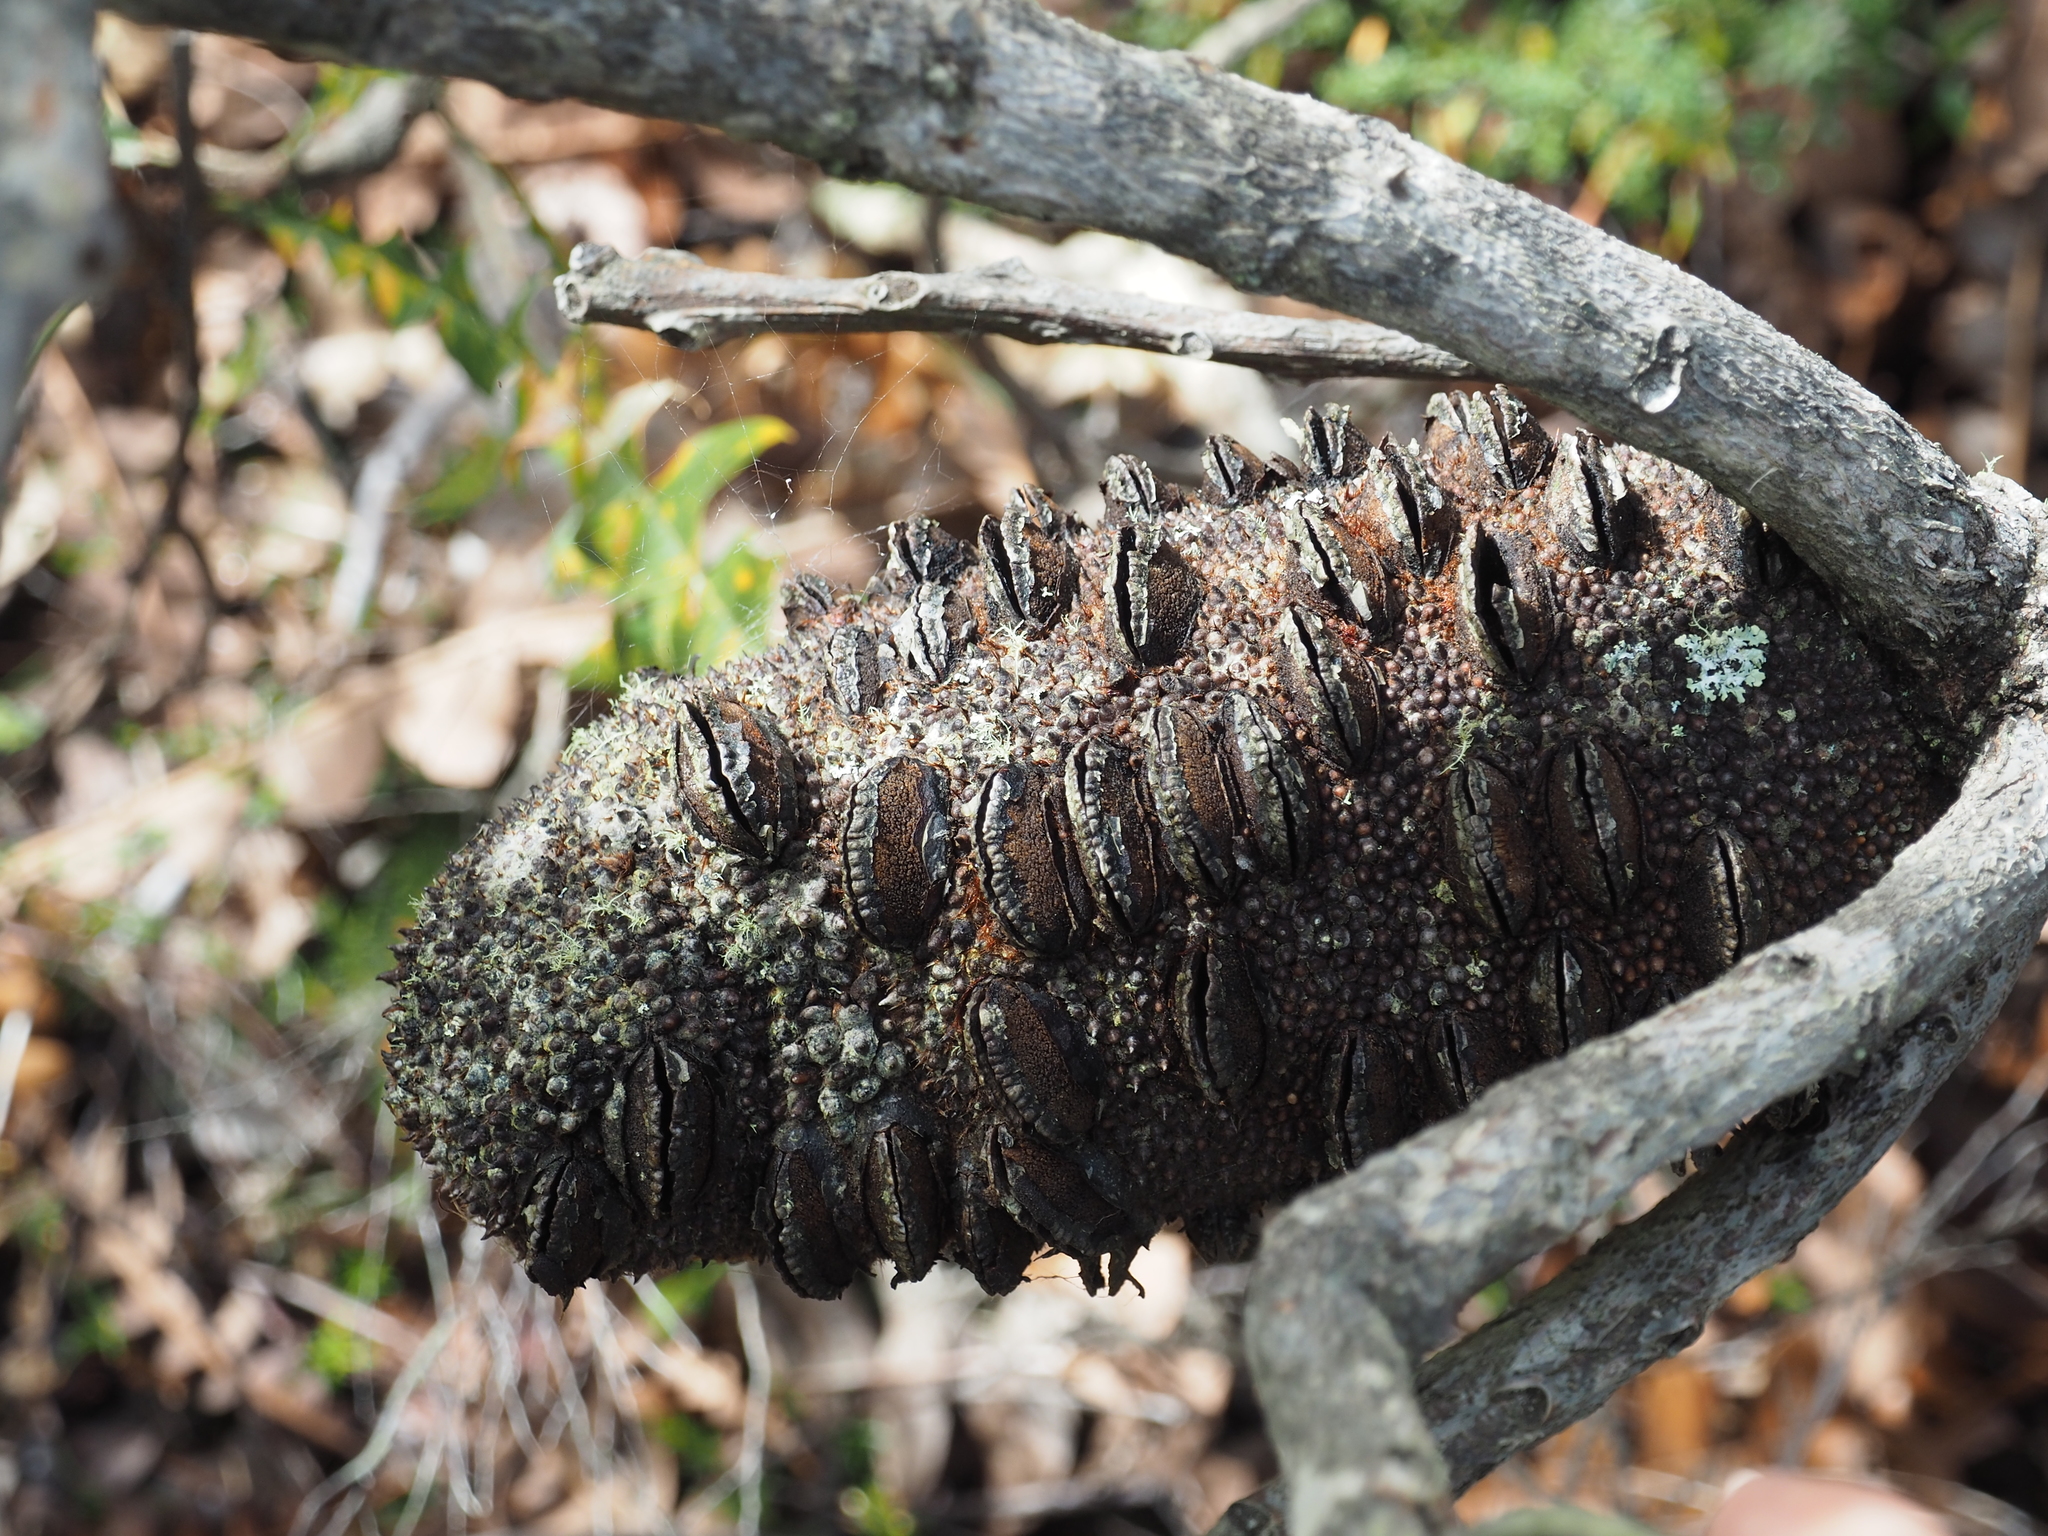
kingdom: Plantae
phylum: Tracheophyta
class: Magnoliopsida
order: Proteales
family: Proteaceae
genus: Banksia
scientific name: Banksia grandis
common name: Giant banksia
